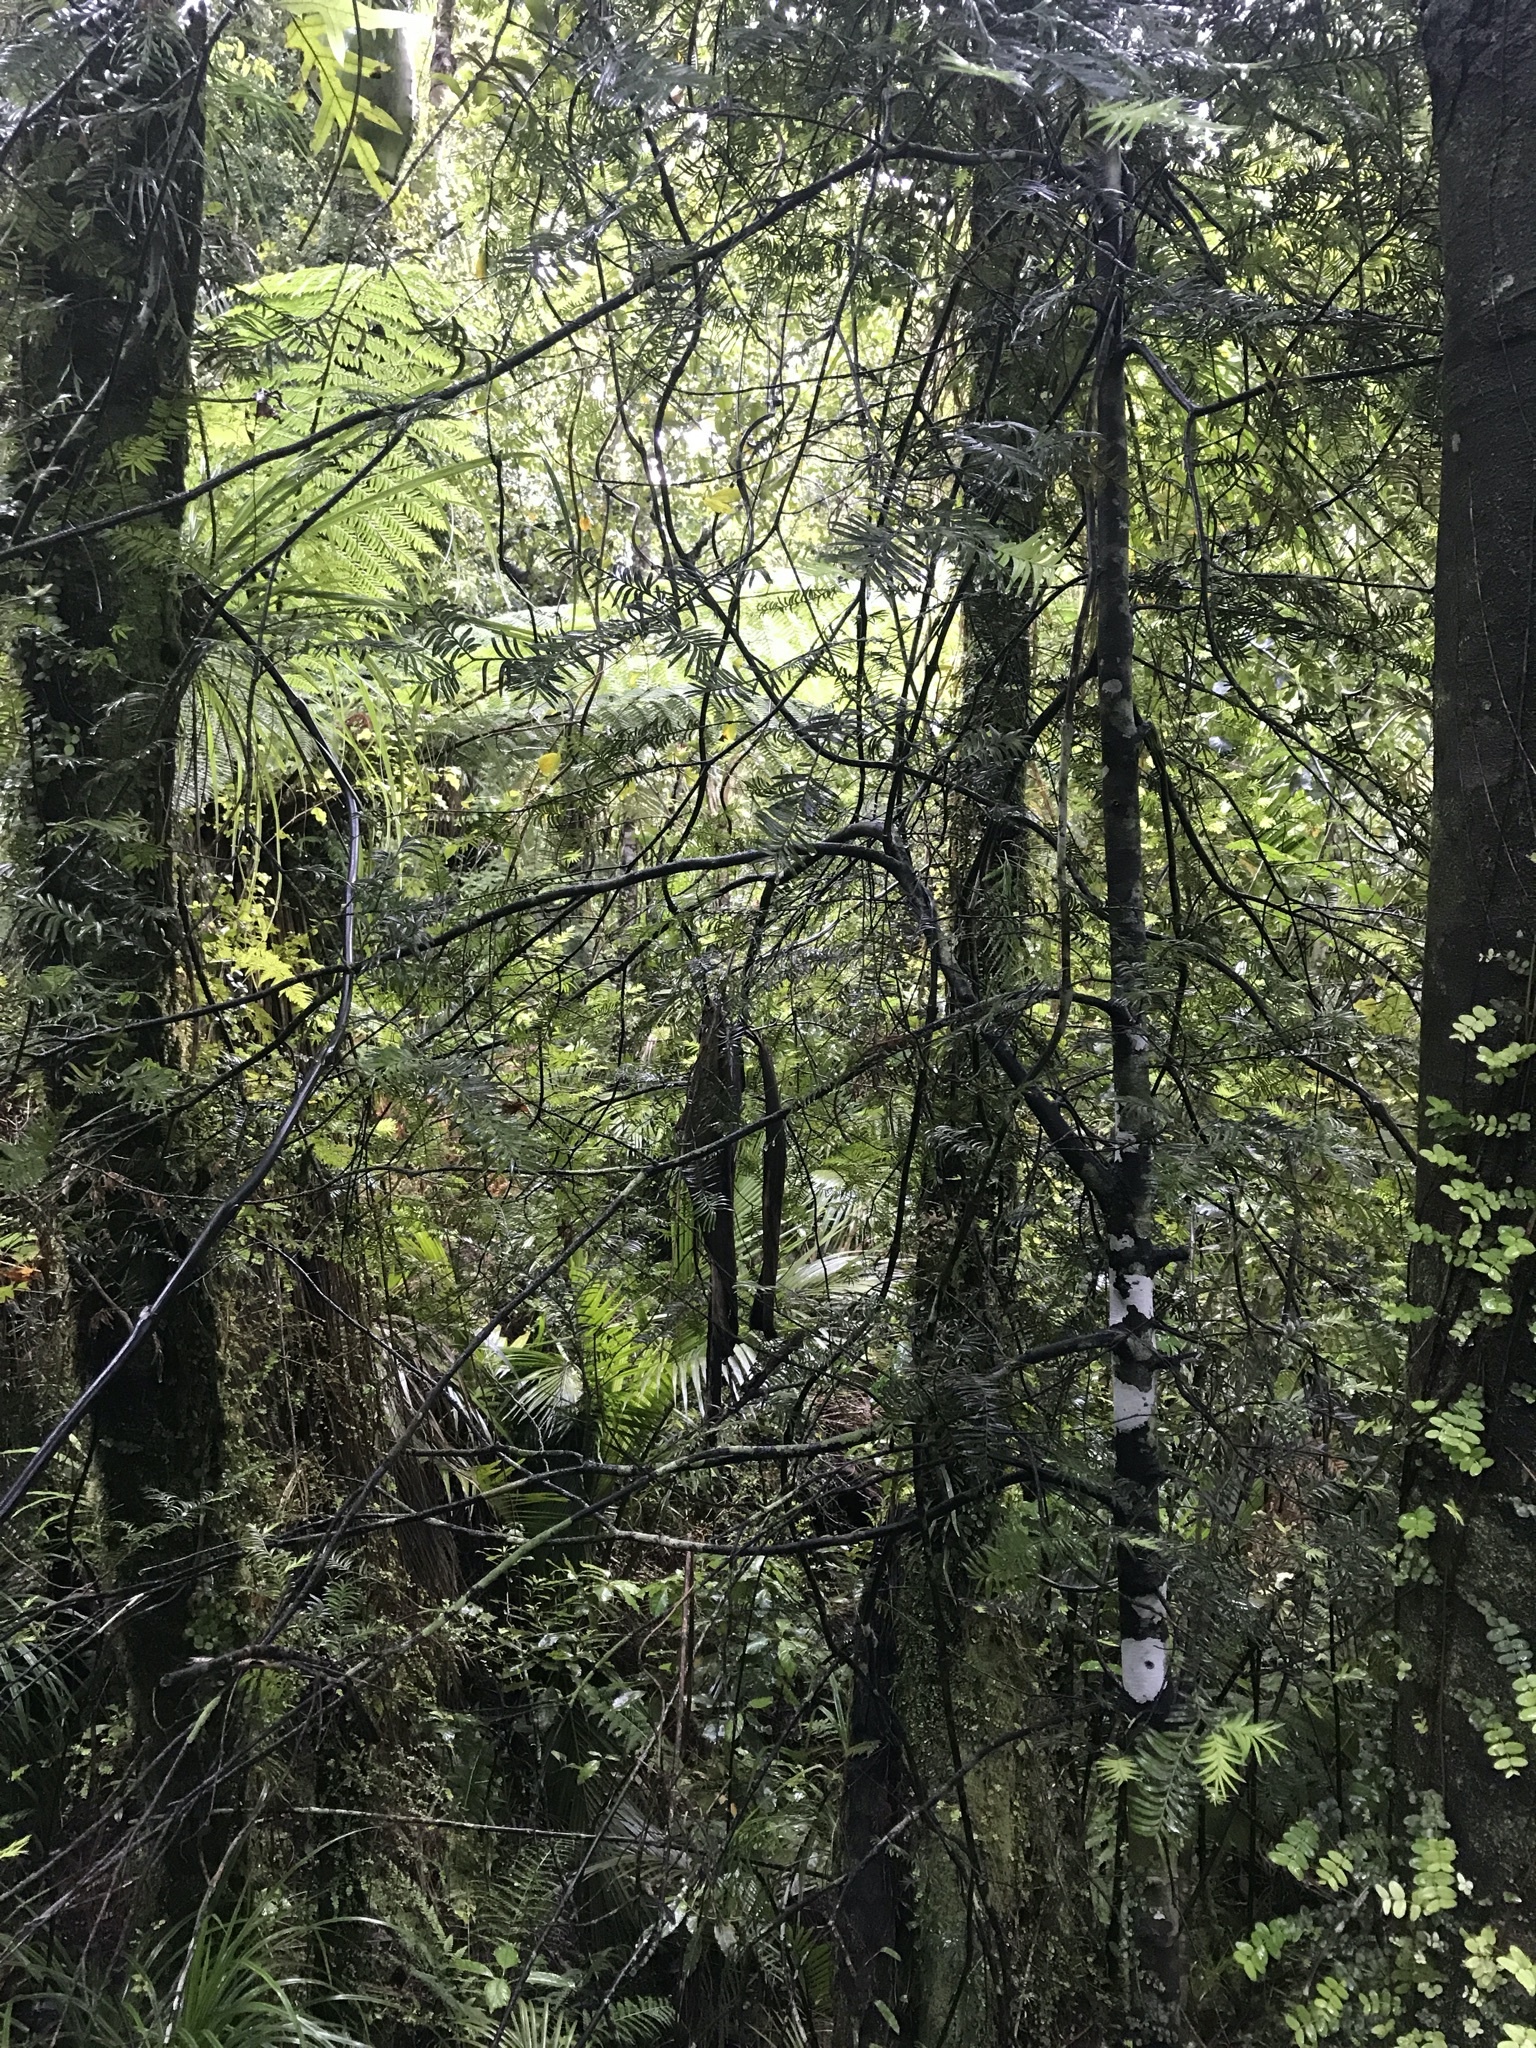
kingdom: Plantae
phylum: Tracheophyta
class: Pinopsida
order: Pinales
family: Podocarpaceae
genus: Prumnopitys
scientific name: Prumnopitys ferruginea
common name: Brown pine
